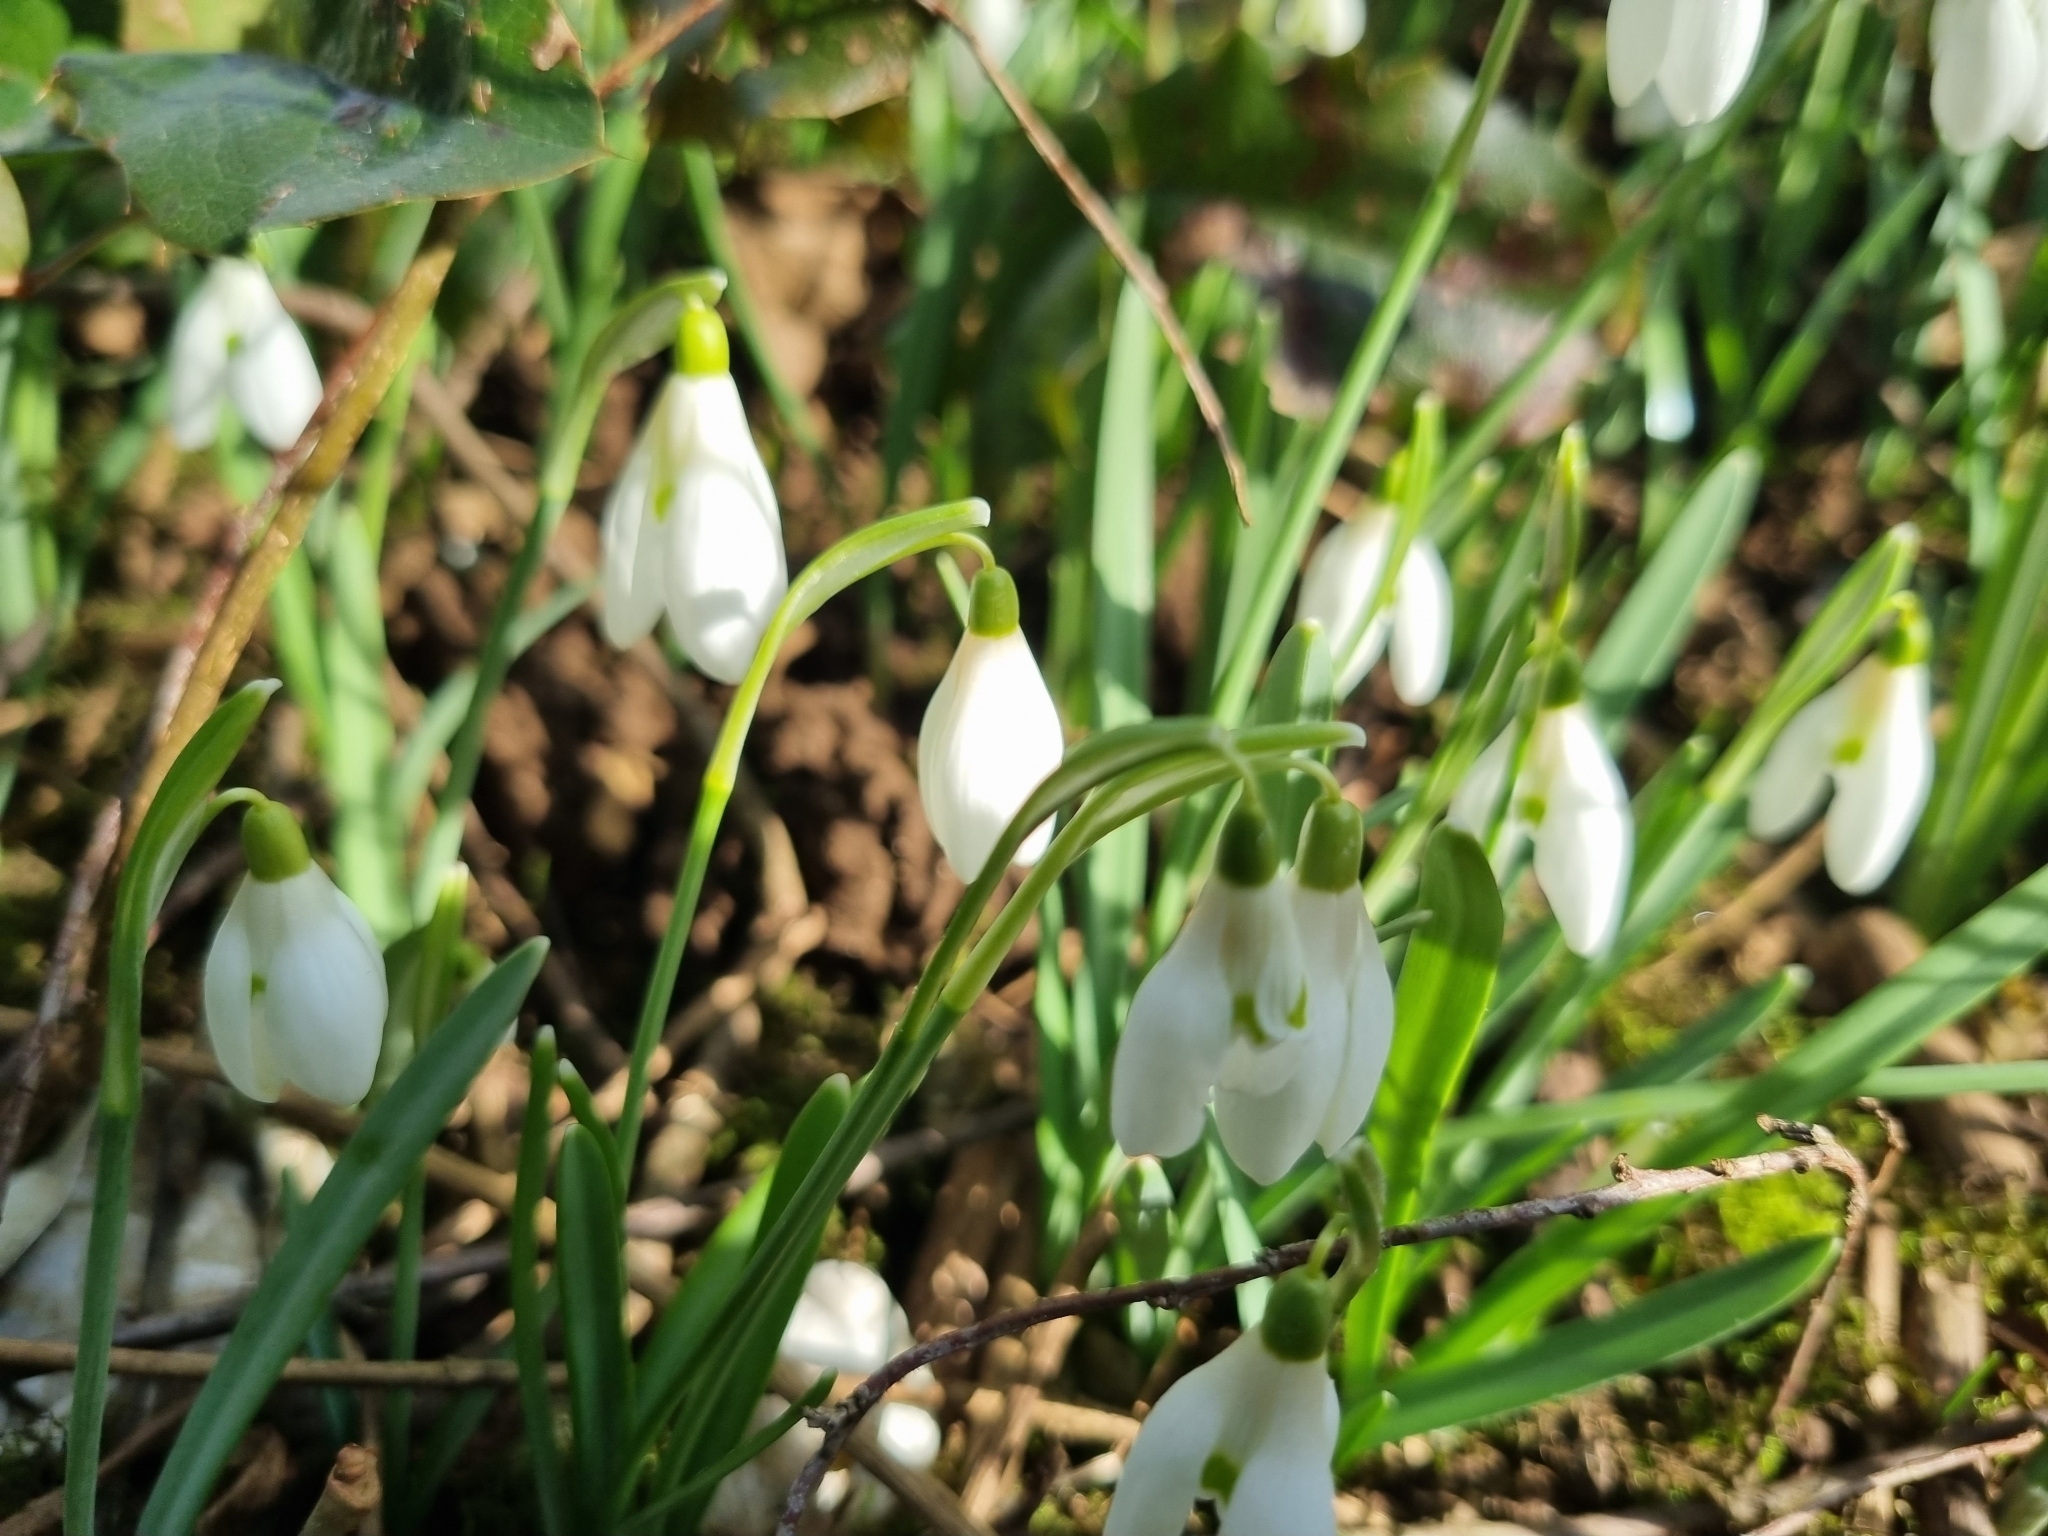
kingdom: Plantae
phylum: Tracheophyta
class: Liliopsida
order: Asparagales
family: Amaryllidaceae
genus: Galanthus
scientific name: Galanthus nivalis
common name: Snowdrop
